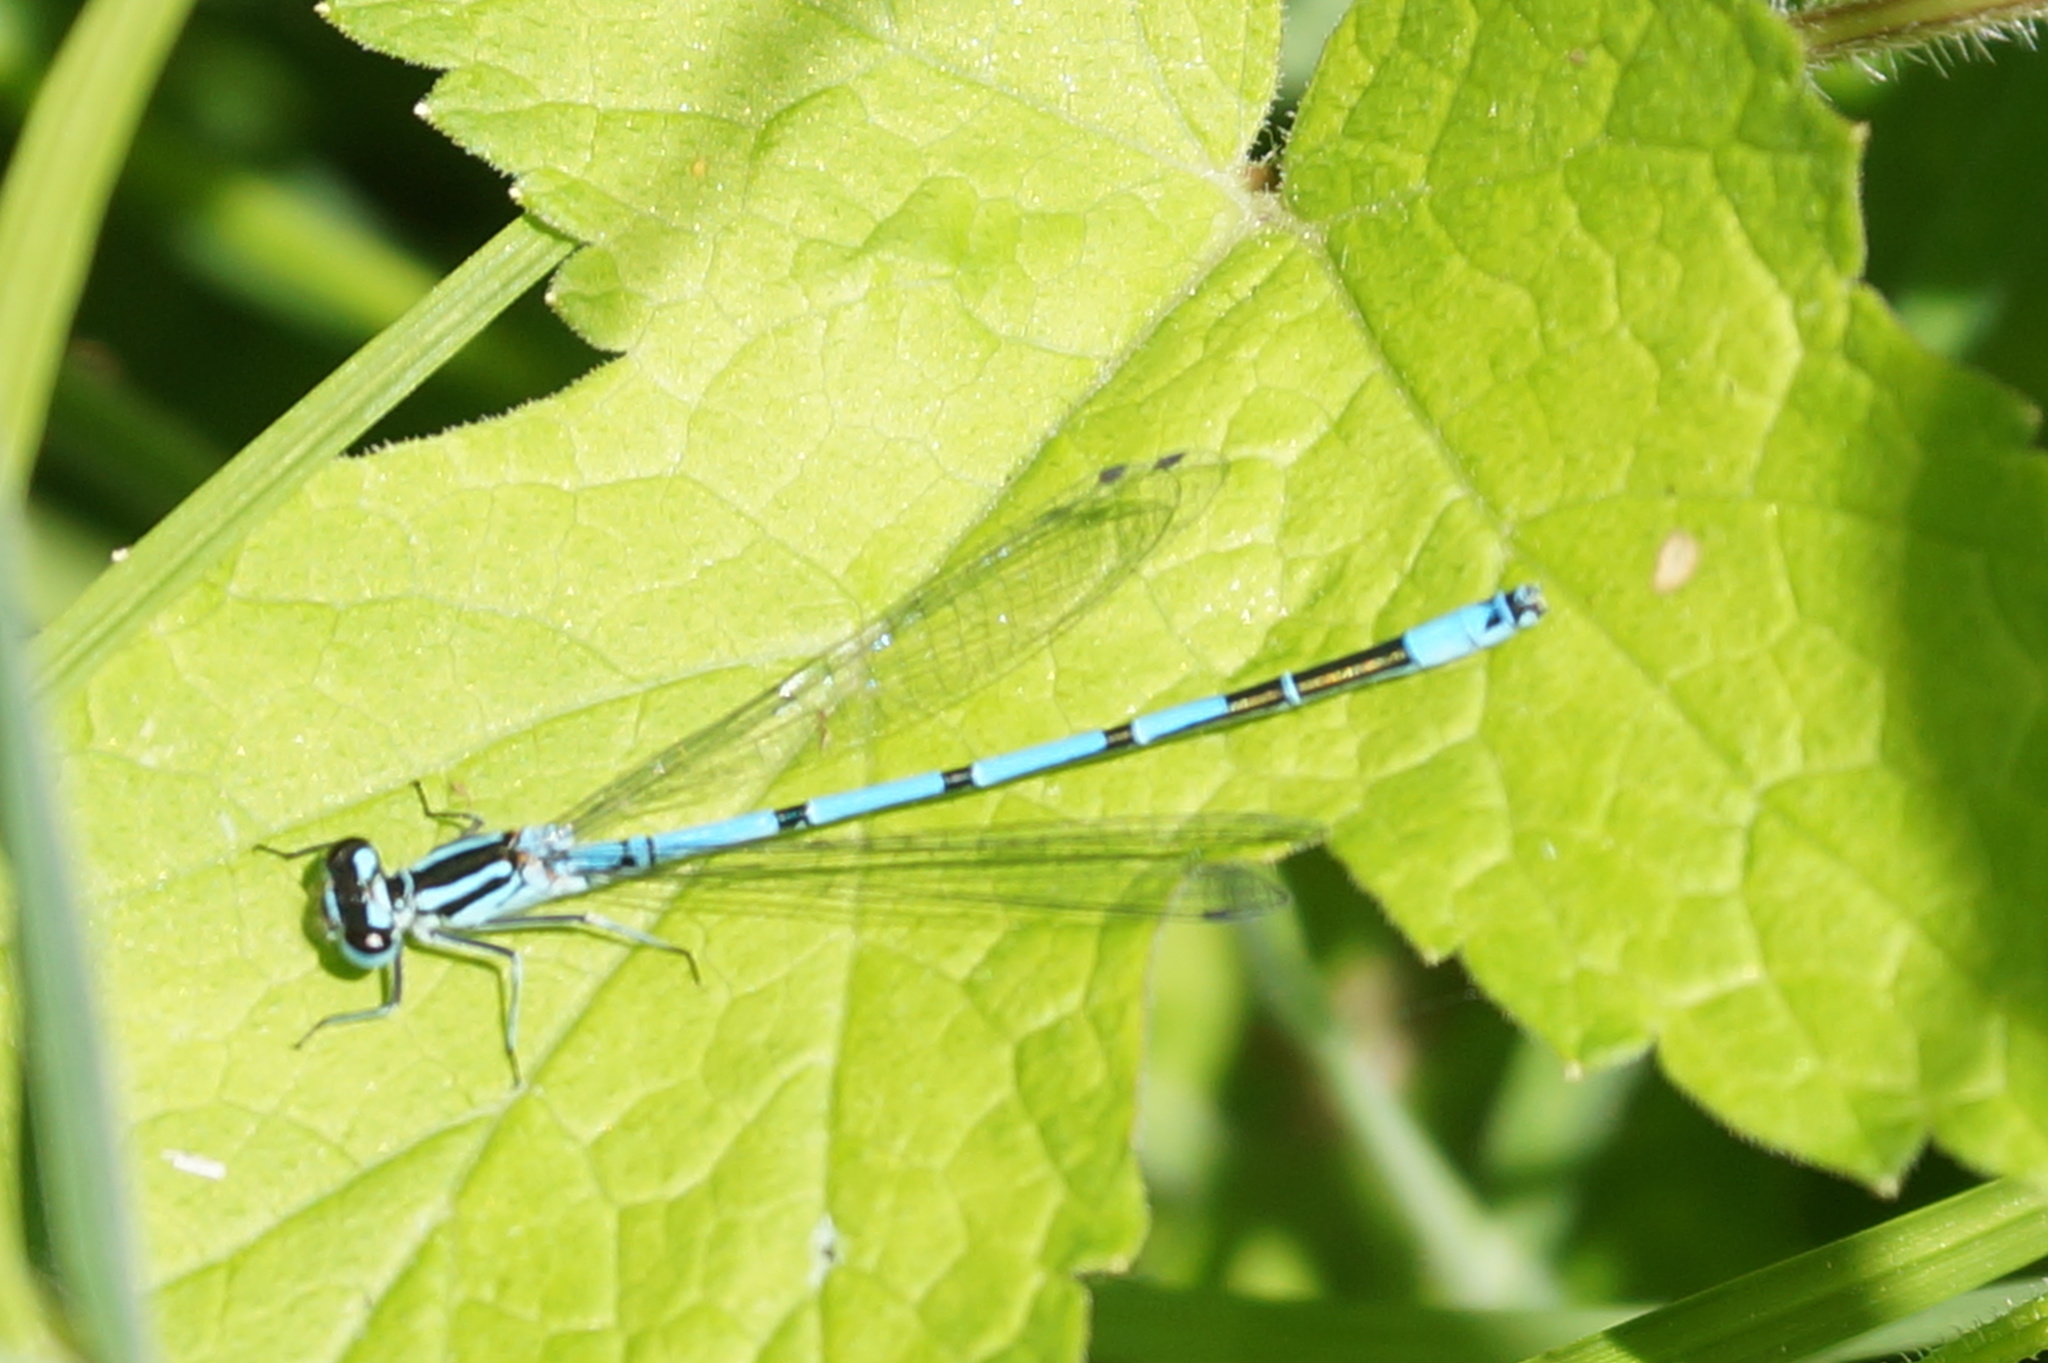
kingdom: Animalia
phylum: Arthropoda
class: Insecta
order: Odonata
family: Coenagrionidae
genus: Coenagrion
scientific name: Coenagrion puella
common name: Azure damselfly
